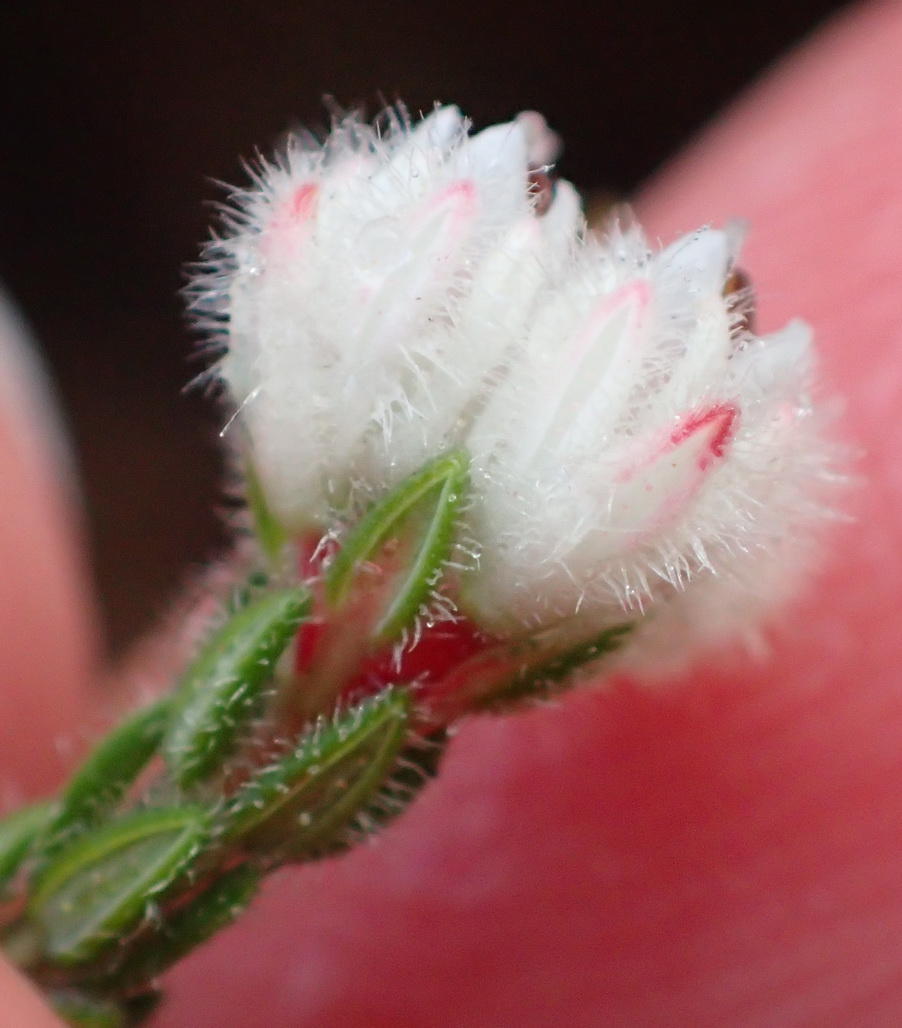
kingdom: Plantae
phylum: Tracheophyta
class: Magnoliopsida
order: Ericales
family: Ericaceae
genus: Erica
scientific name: Erica flaccida
